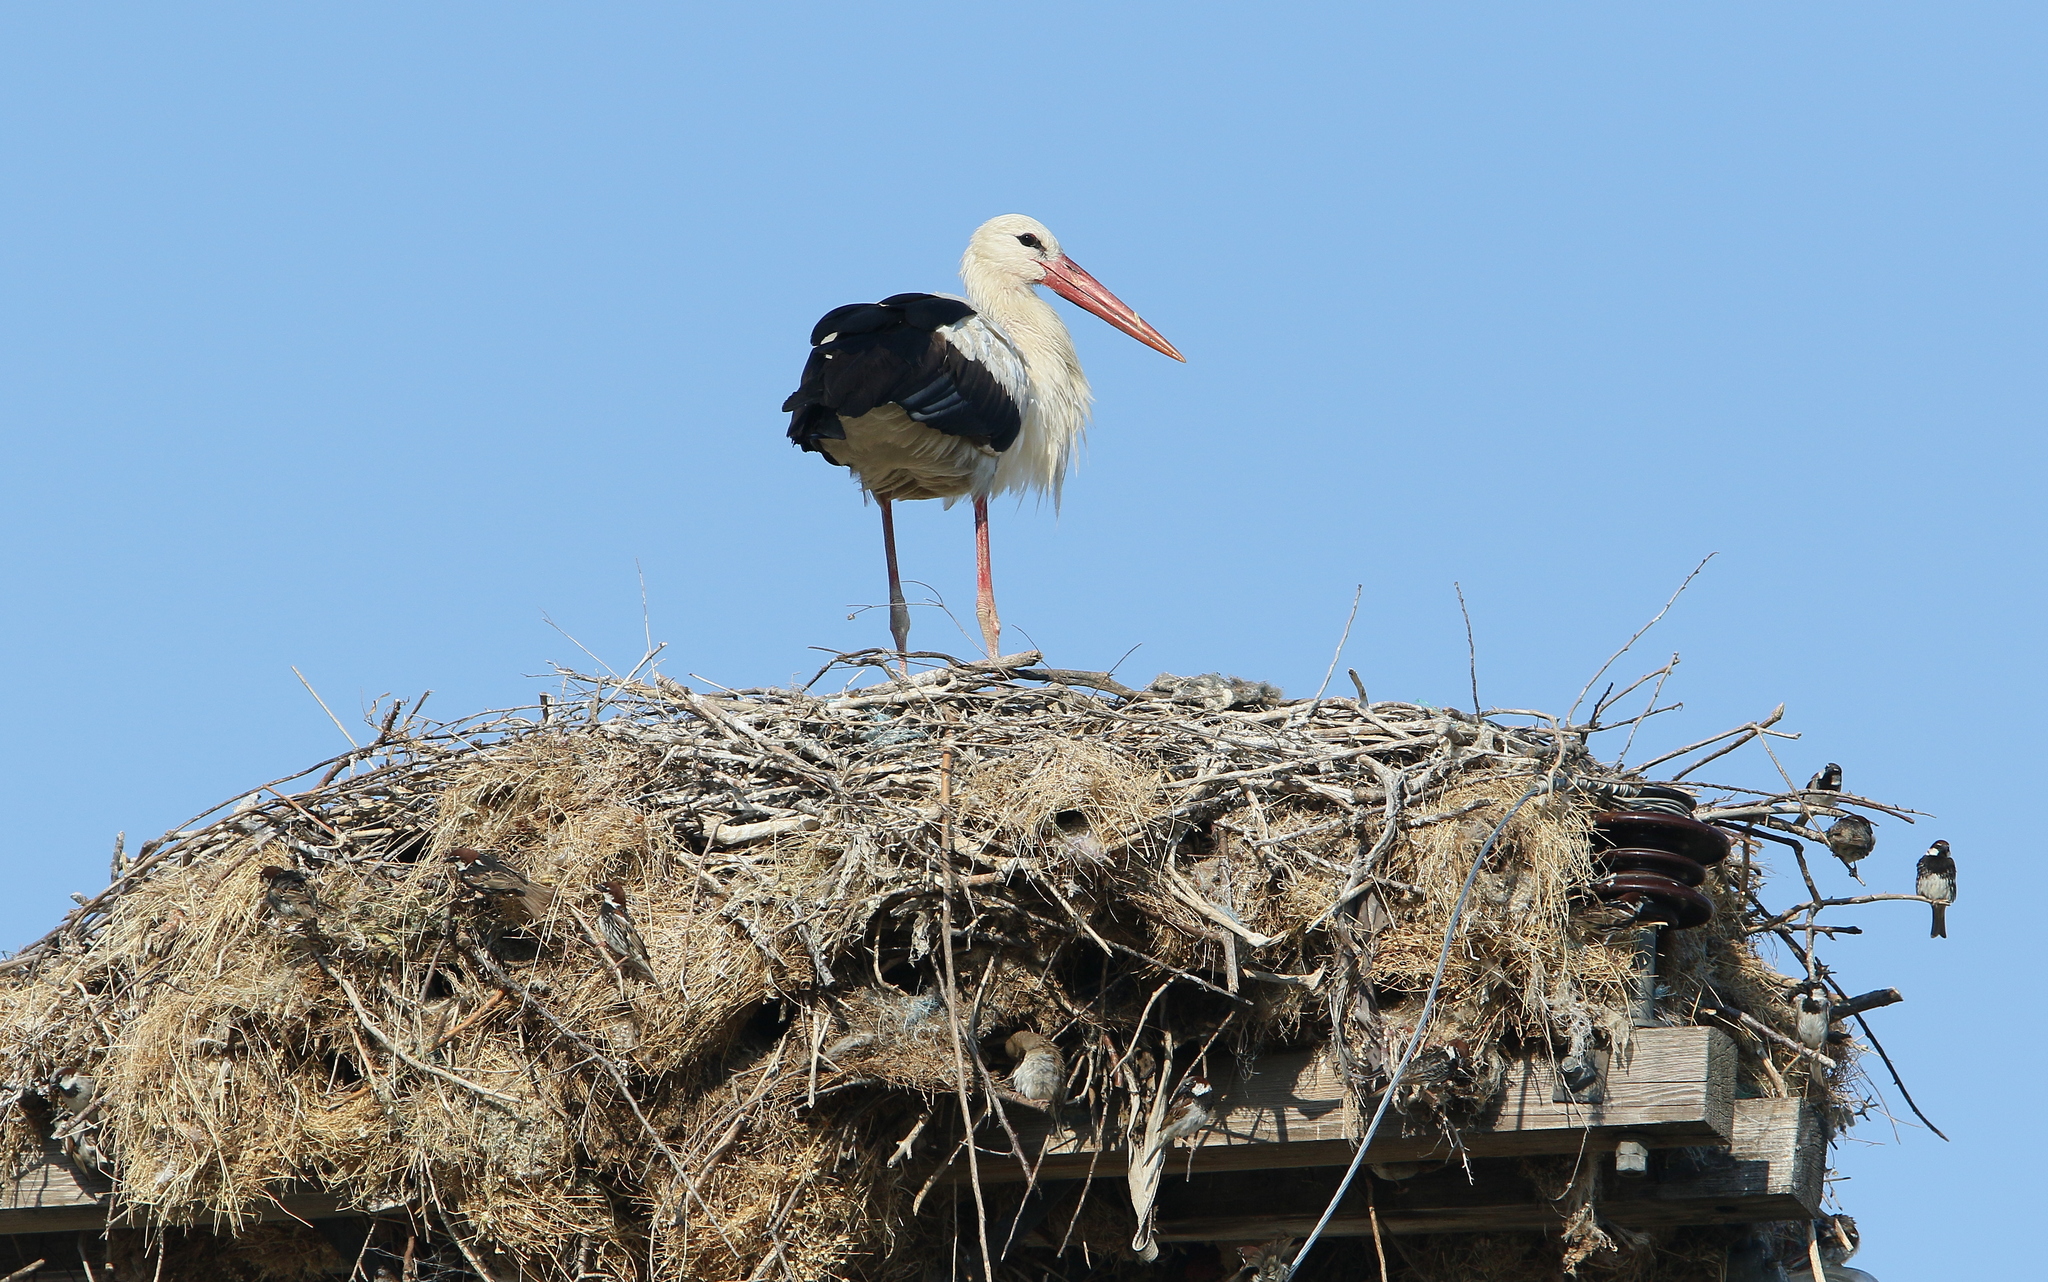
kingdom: Animalia
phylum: Chordata
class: Aves
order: Ciconiiformes
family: Ciconiidae
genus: Ciconia
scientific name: Ciconia ciconia
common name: White stork
